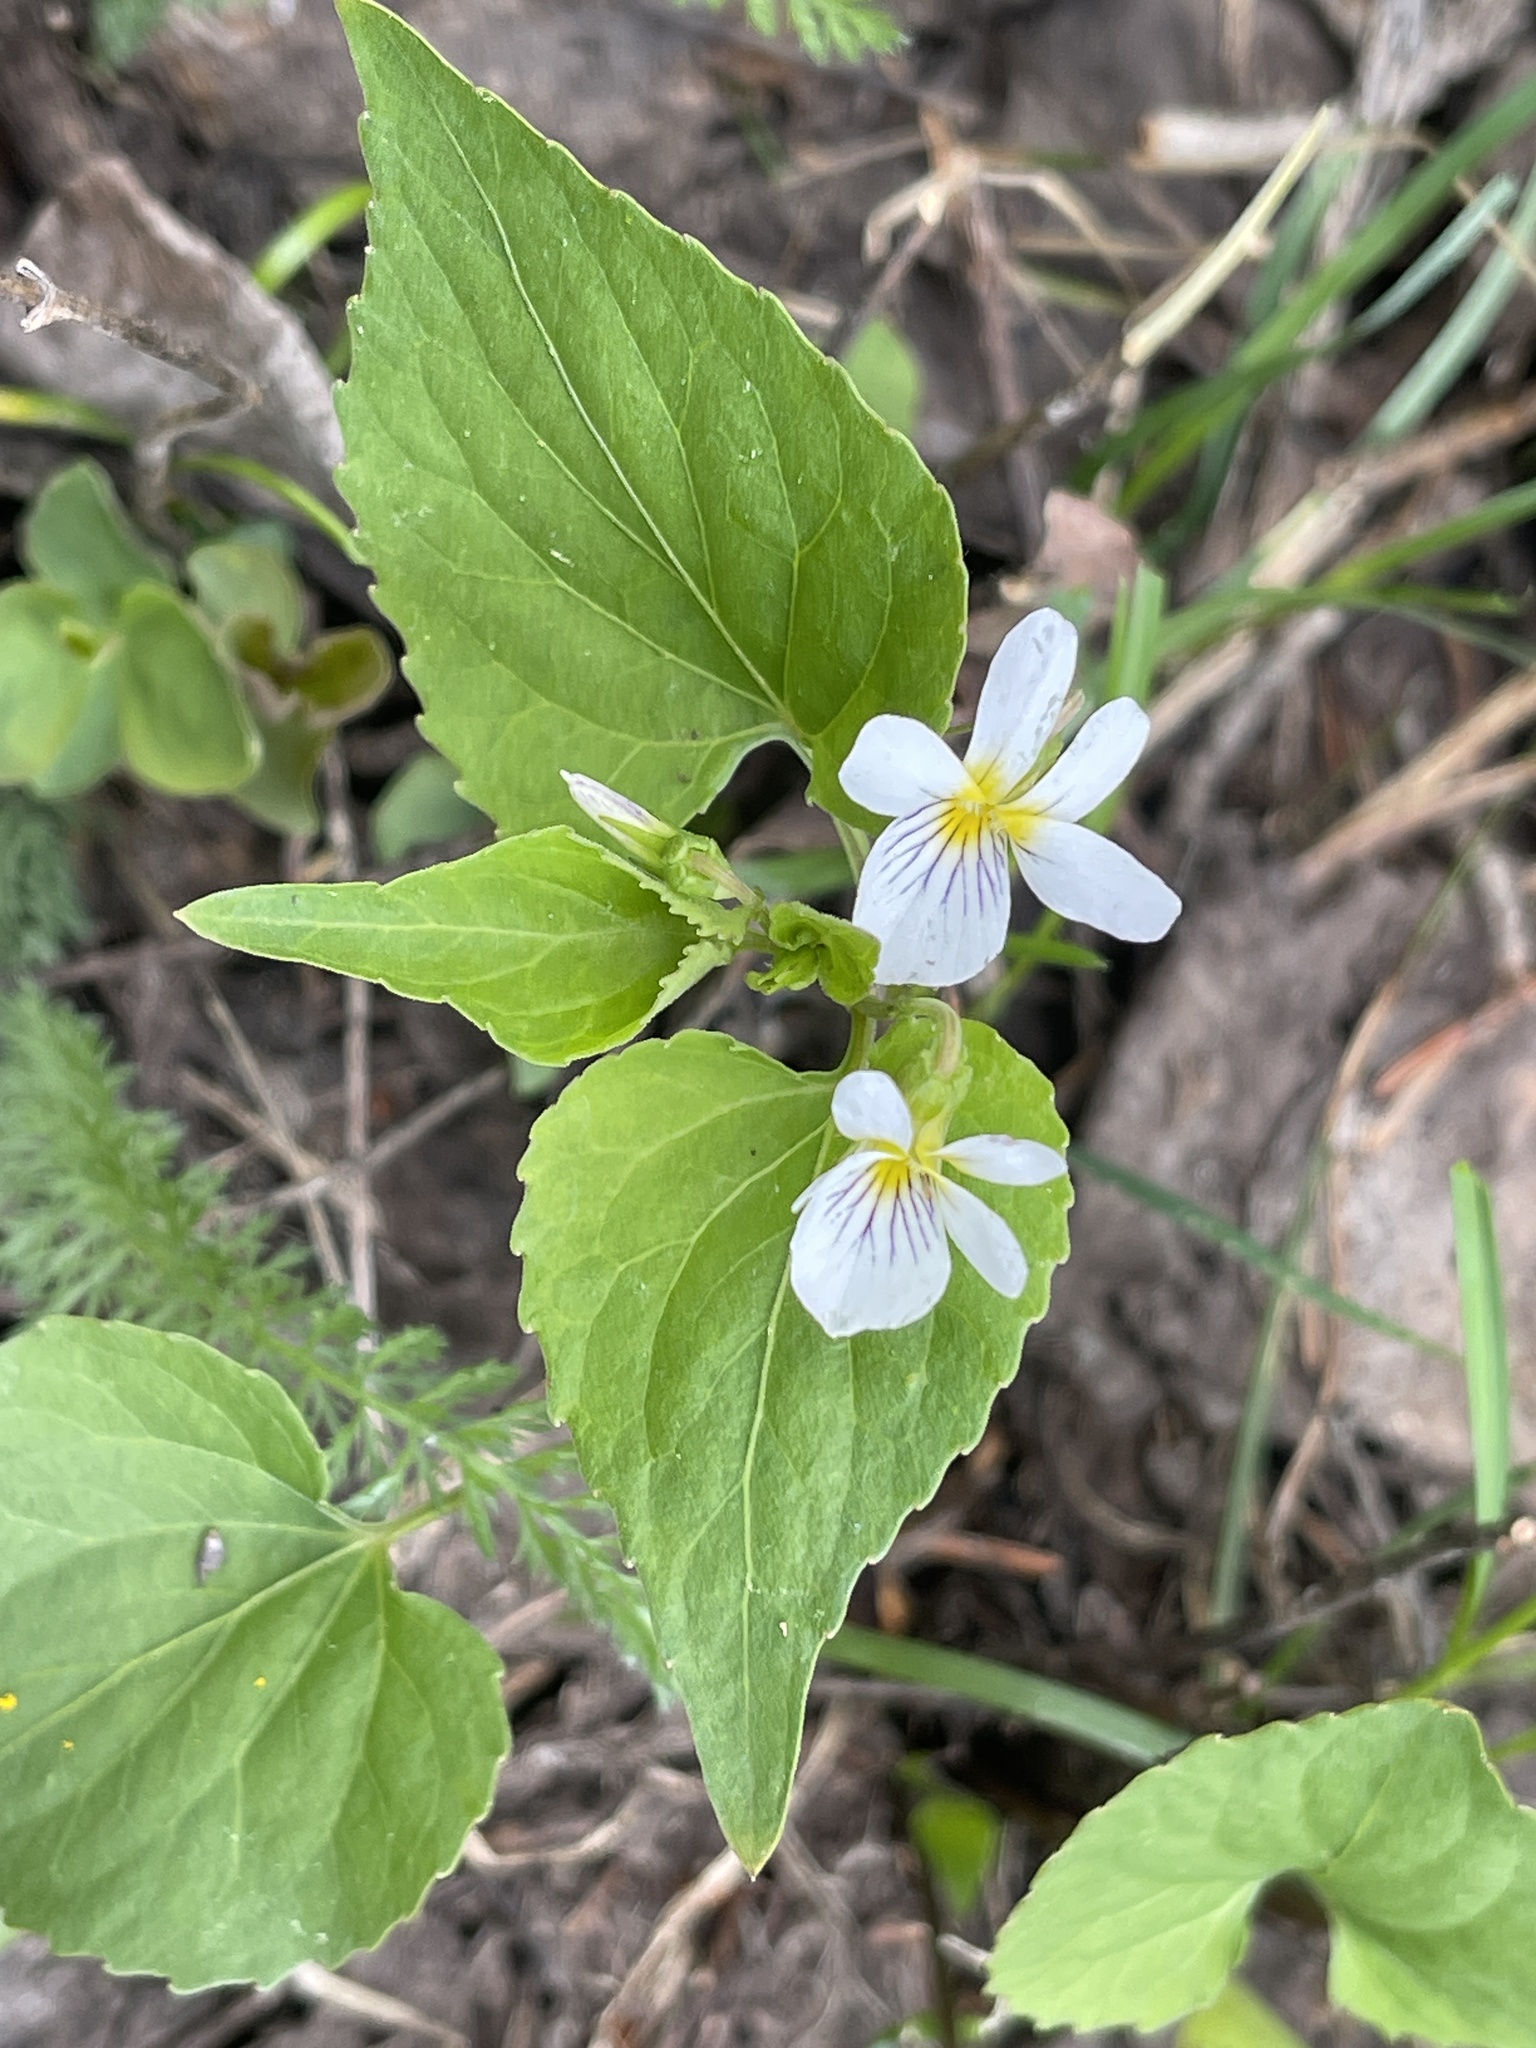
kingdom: Plantae
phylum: Tracheophyta
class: Magnoliopsida
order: Malpighiales
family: Violaceae
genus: Viola
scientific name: Viola canadensis
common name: Canada violet
